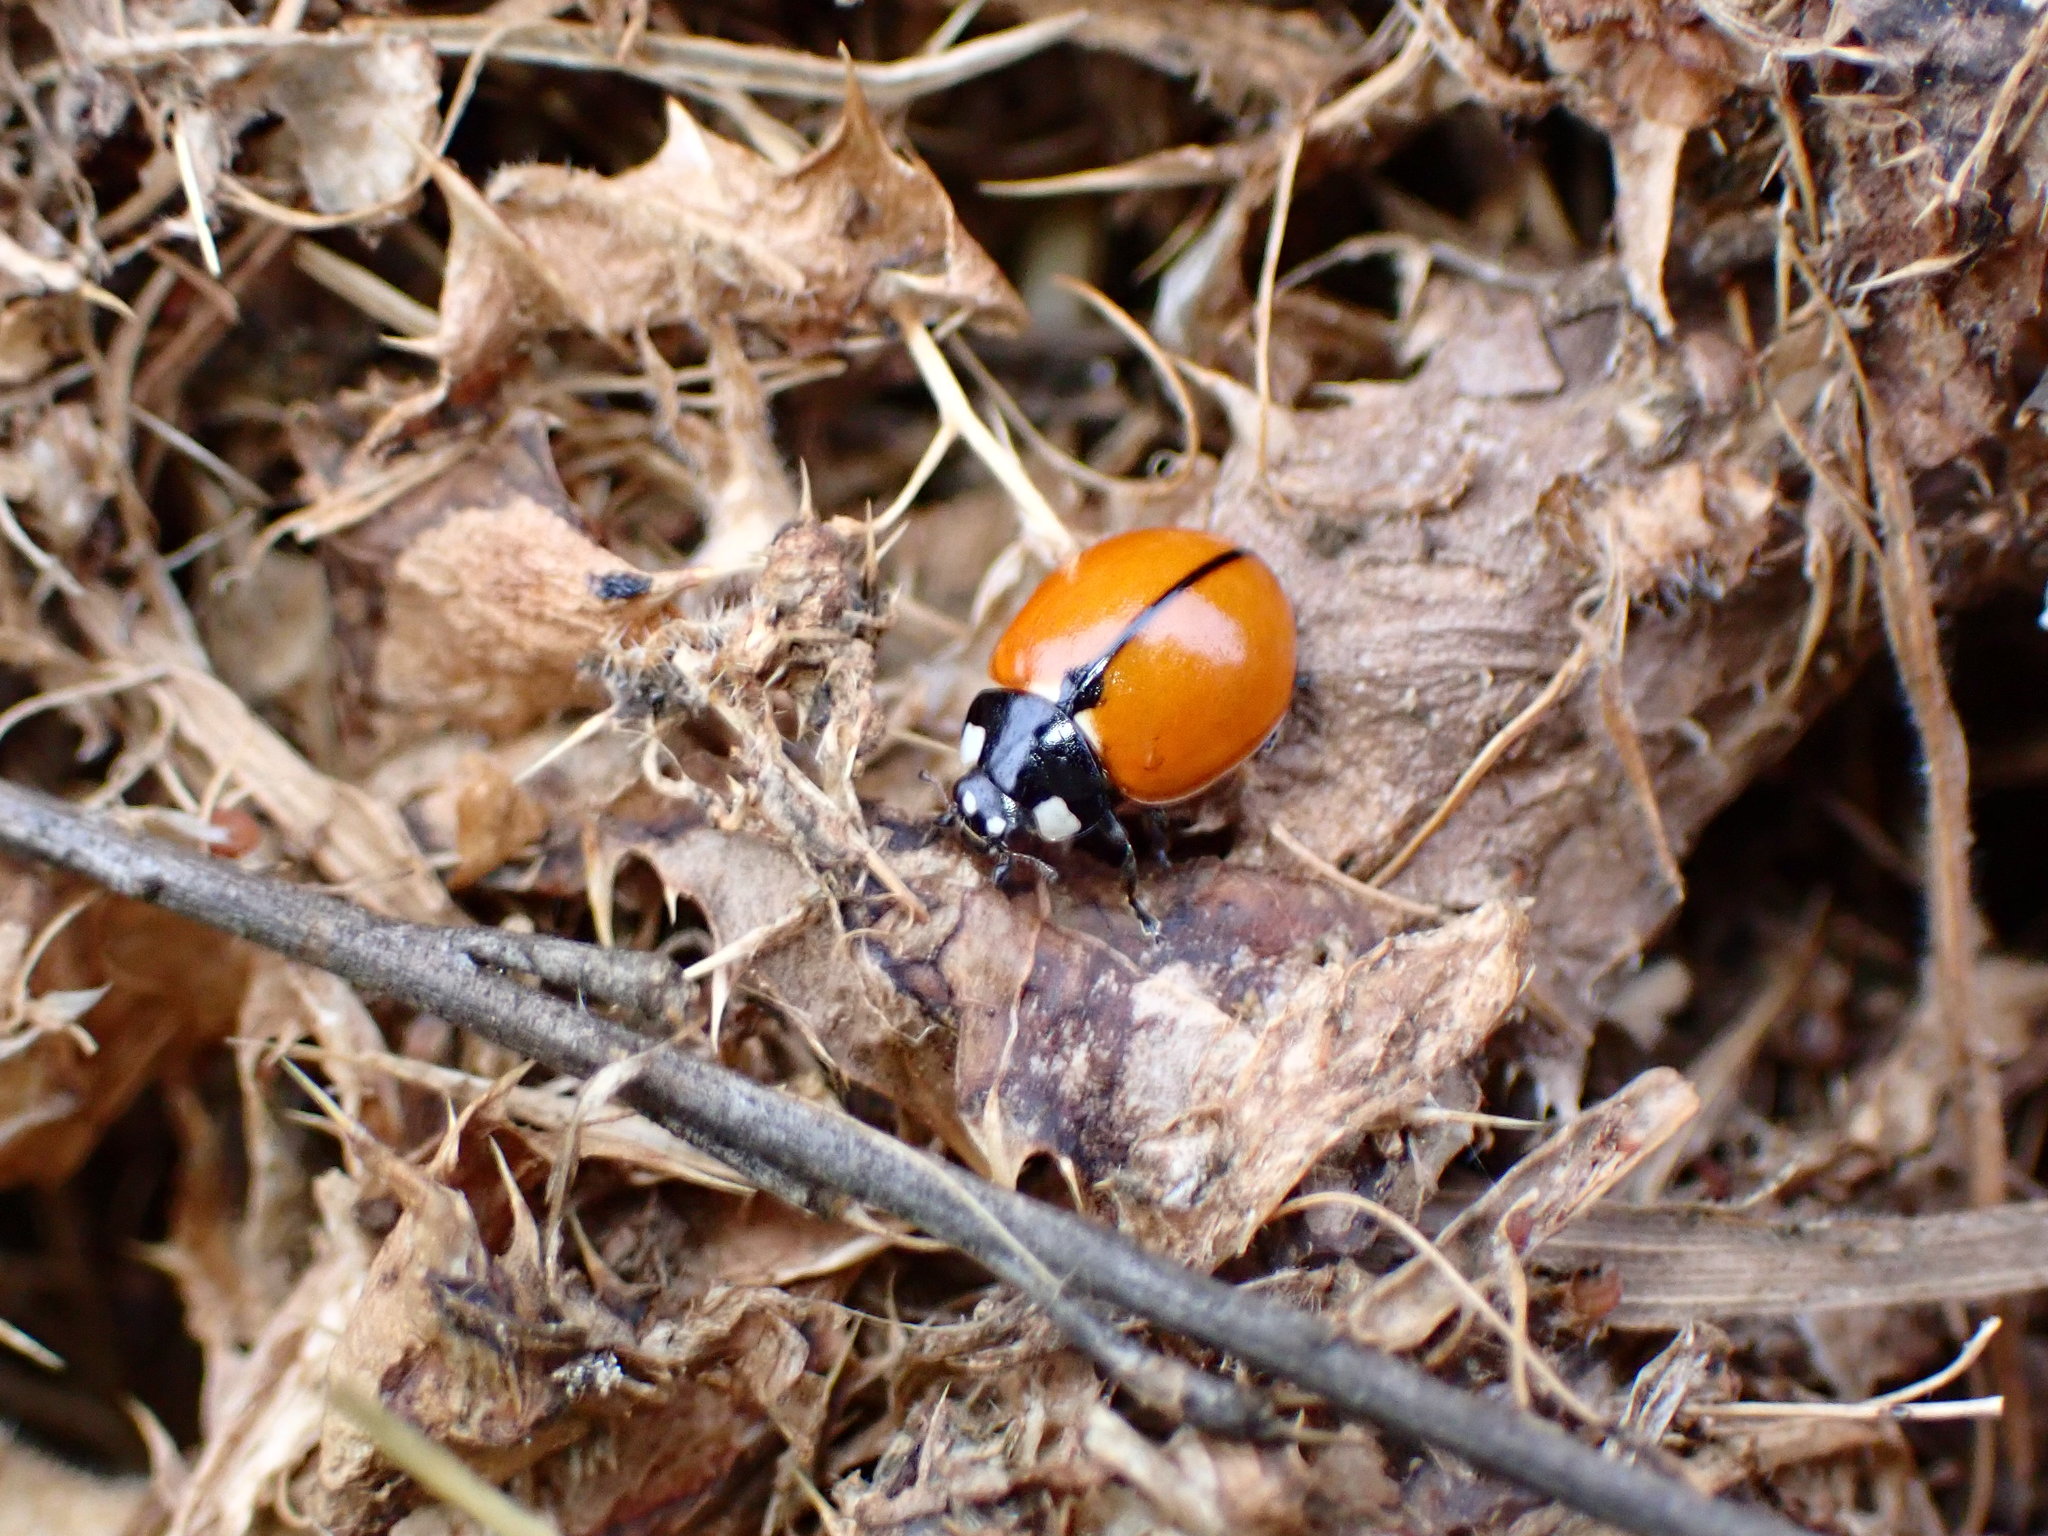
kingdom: Animalia
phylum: Arthropoda
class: Insecta
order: Coleoptera
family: Coccinellidae
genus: Coccinella
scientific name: Coccinella californica
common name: Lady beetle
